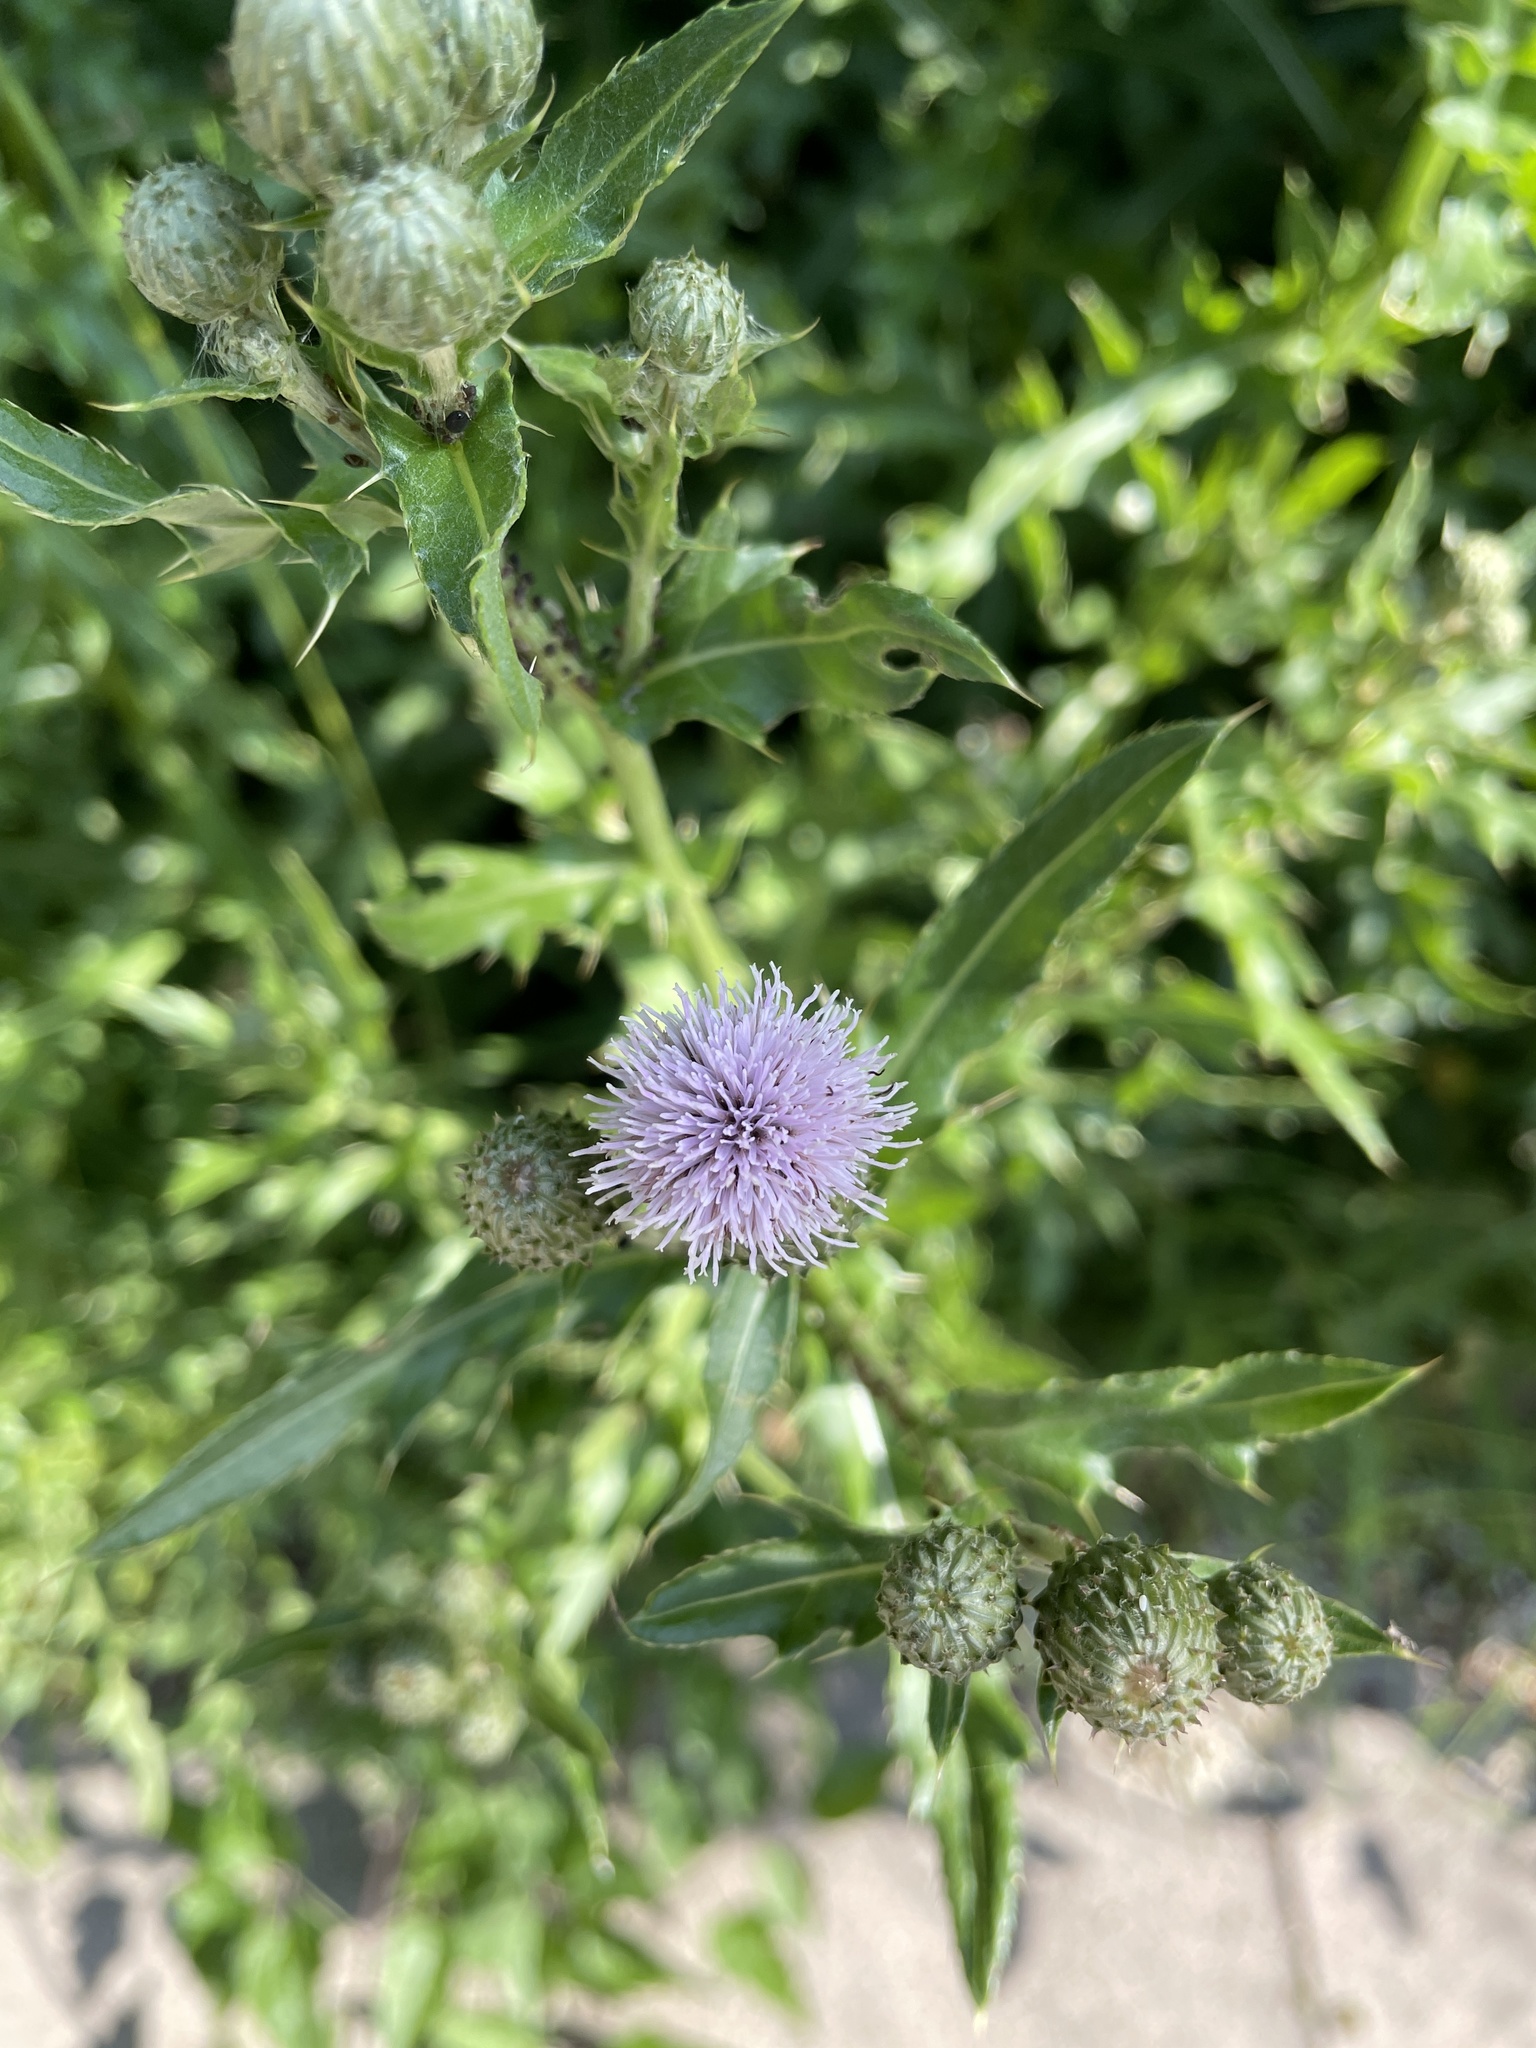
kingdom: Plantae
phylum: Tracheophyta
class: Magnoliopsida
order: Asterales
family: Asteraceae
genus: Cirsium
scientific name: Cirsium arvense
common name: Creeping thistle
